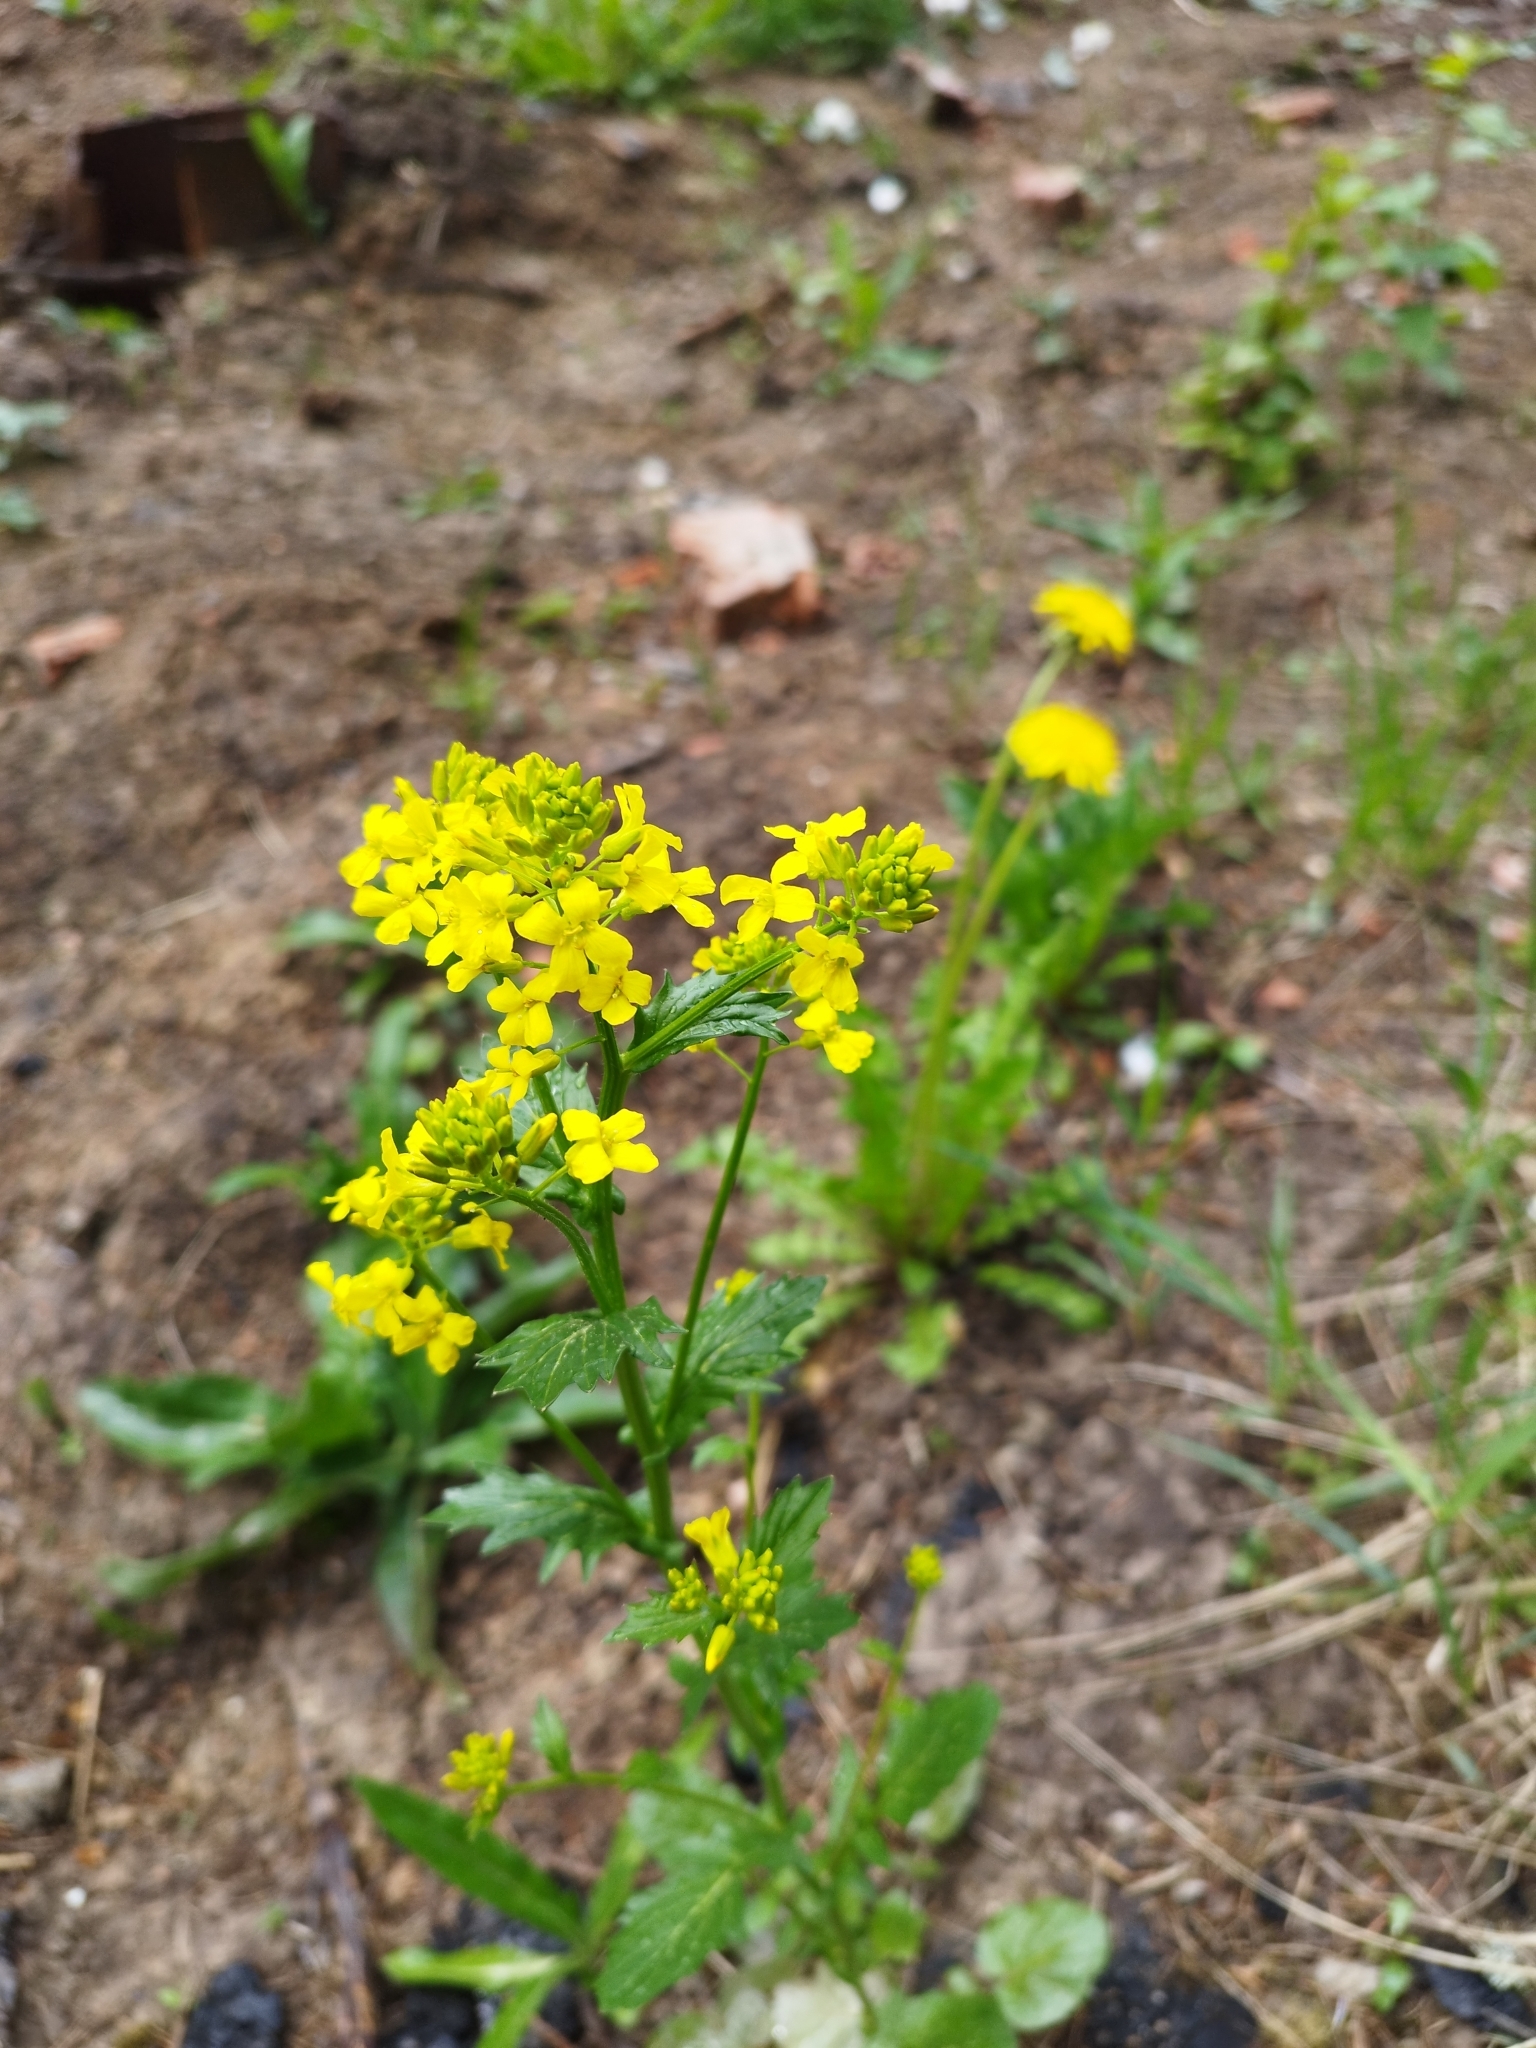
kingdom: Plantae
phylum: Tracheophyta
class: Magnoliopsida
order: Brassicales
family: Brassicaceae
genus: Barbarea
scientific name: Barbarea vulgaris
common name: Cressy-greens
